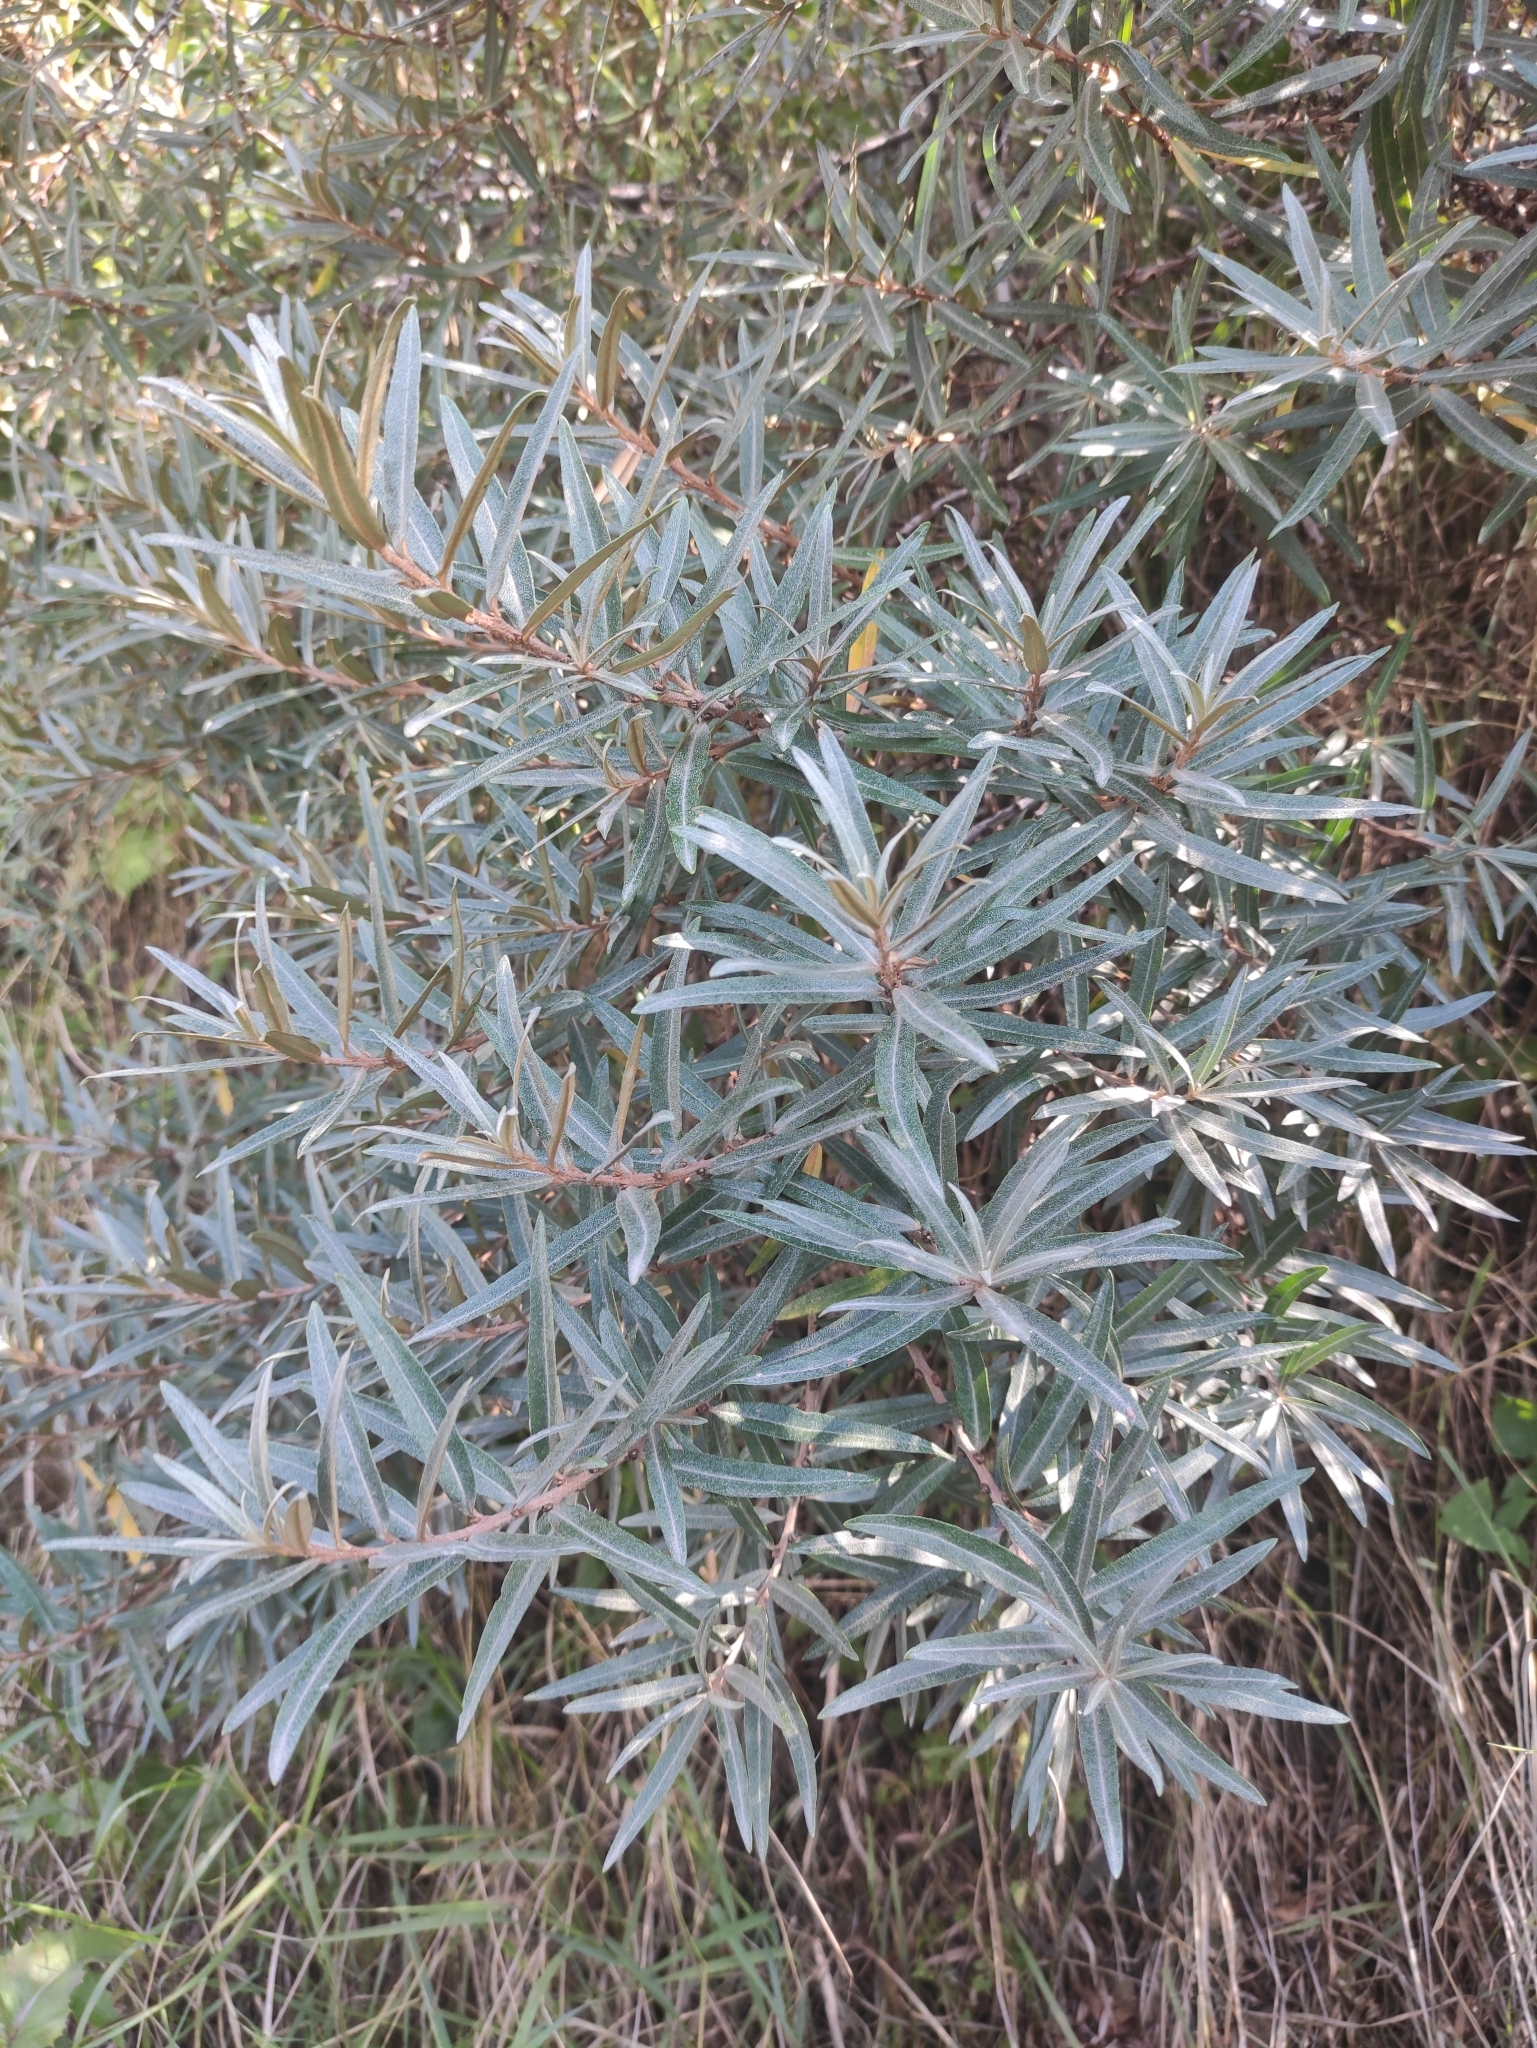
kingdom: Plantae
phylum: Tracheophyta
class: Magnoliopsida
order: Rosales
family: Elaeagnaceae
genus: Hippophae
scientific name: Hippophae rhamnoides
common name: Sea-buckthorn
